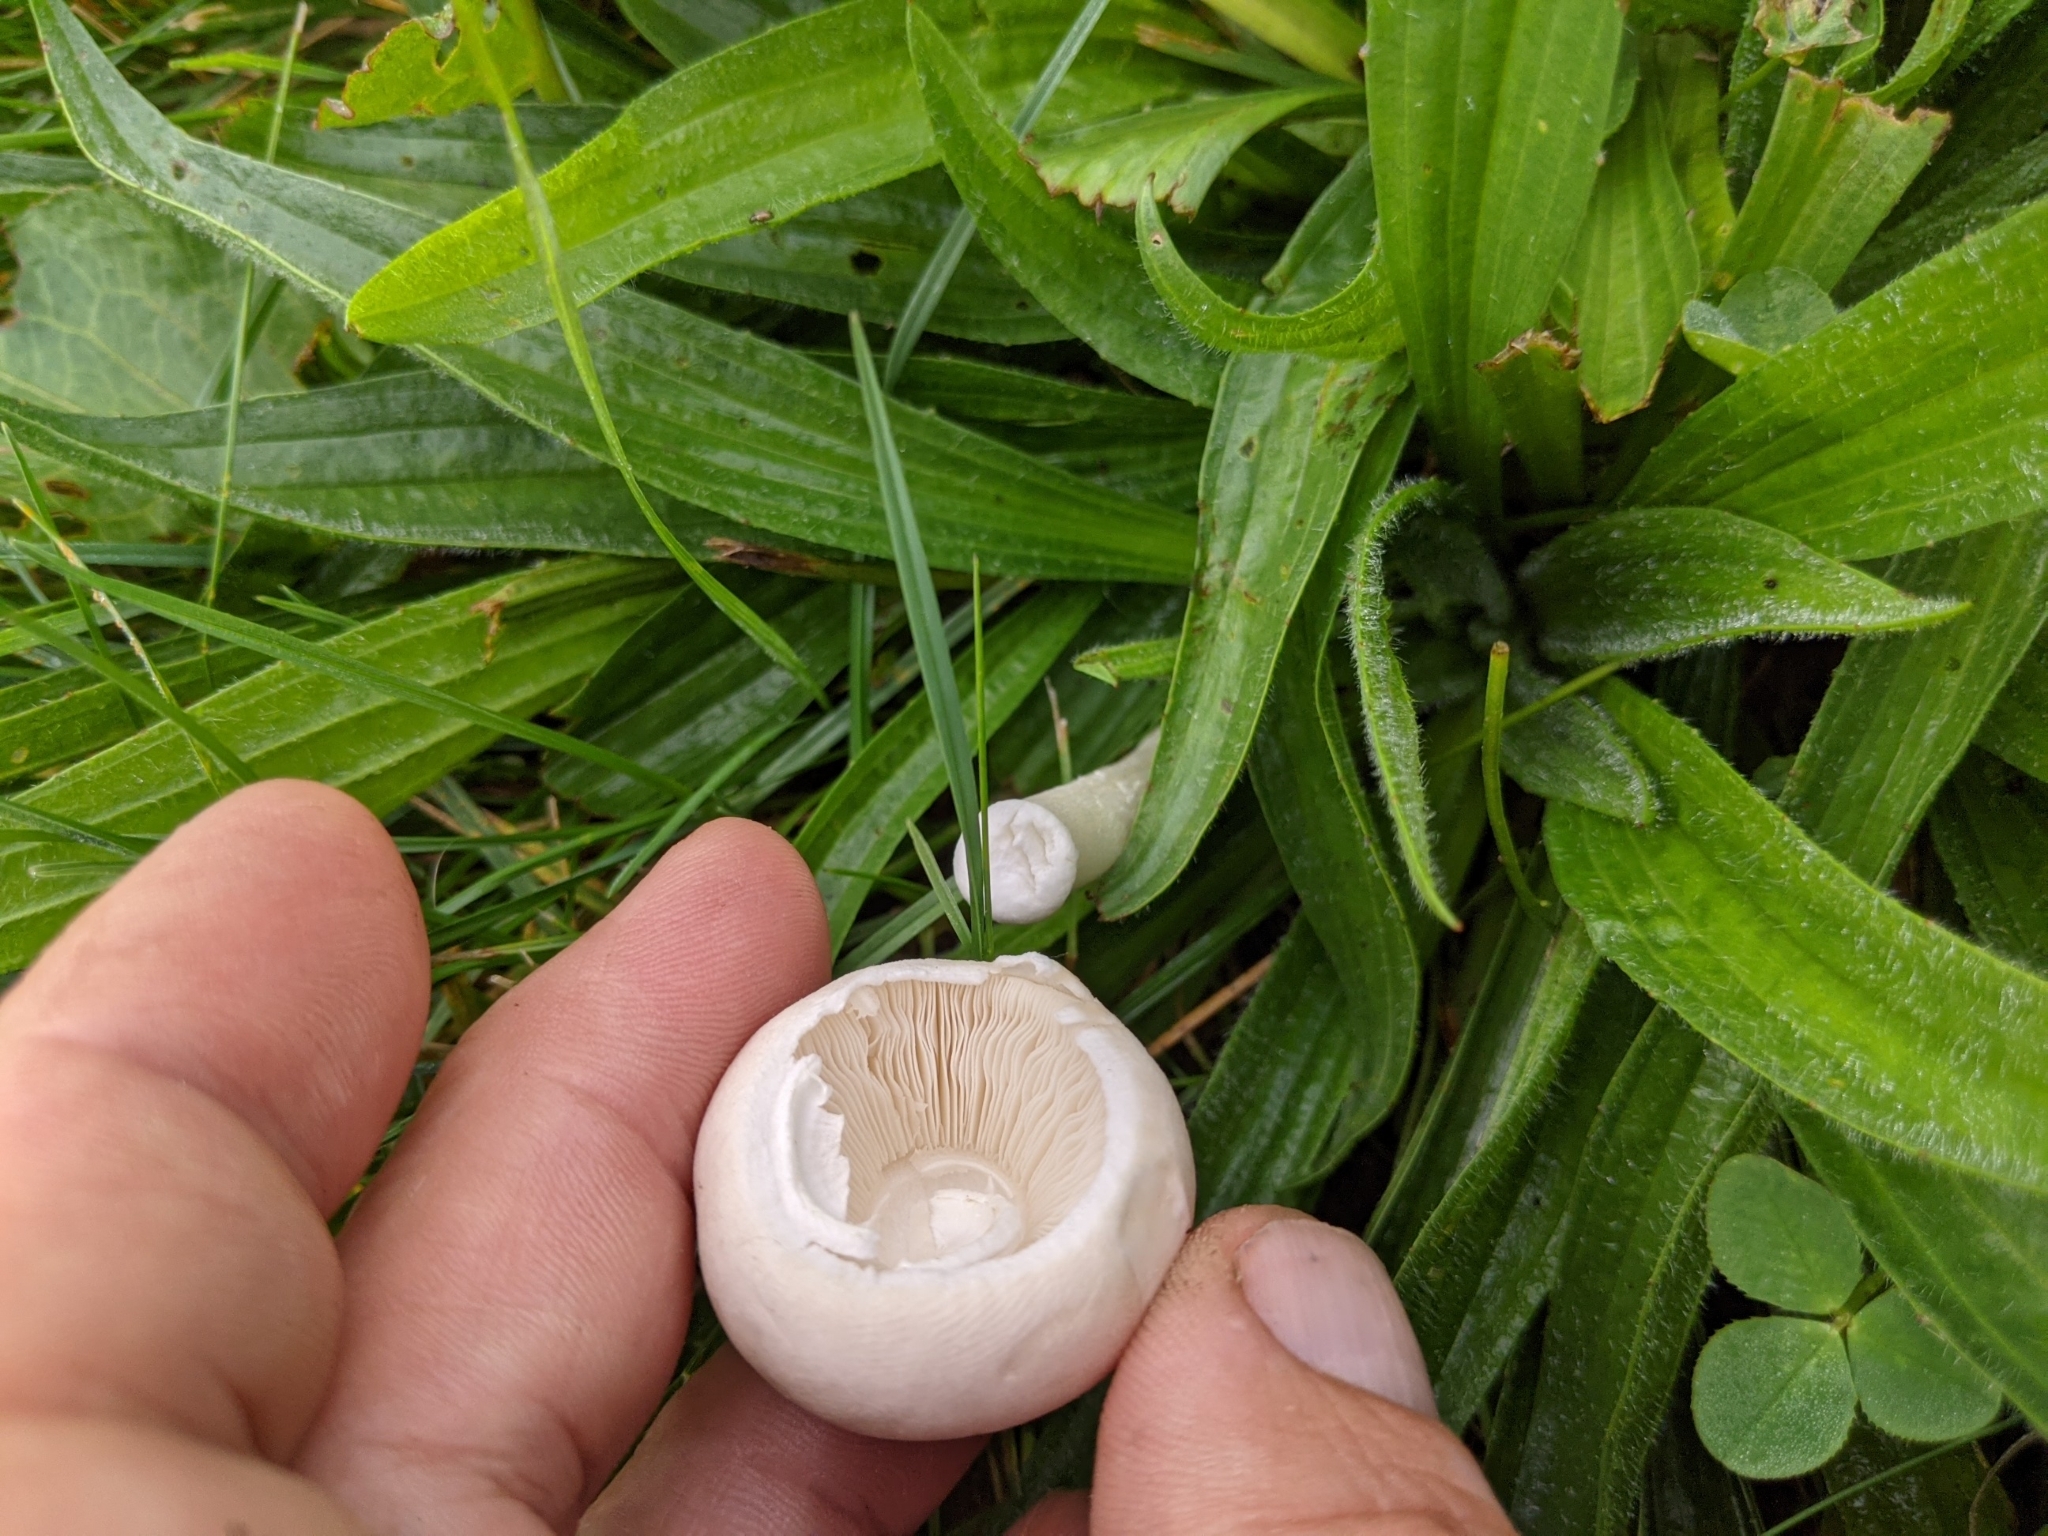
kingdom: Fungi
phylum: Basidiomycota
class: Agaricomycetes
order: Agaricales
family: Agaricaceae
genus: Leucoagaricus
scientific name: Leucoagaricus leucothites
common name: White dapperling
